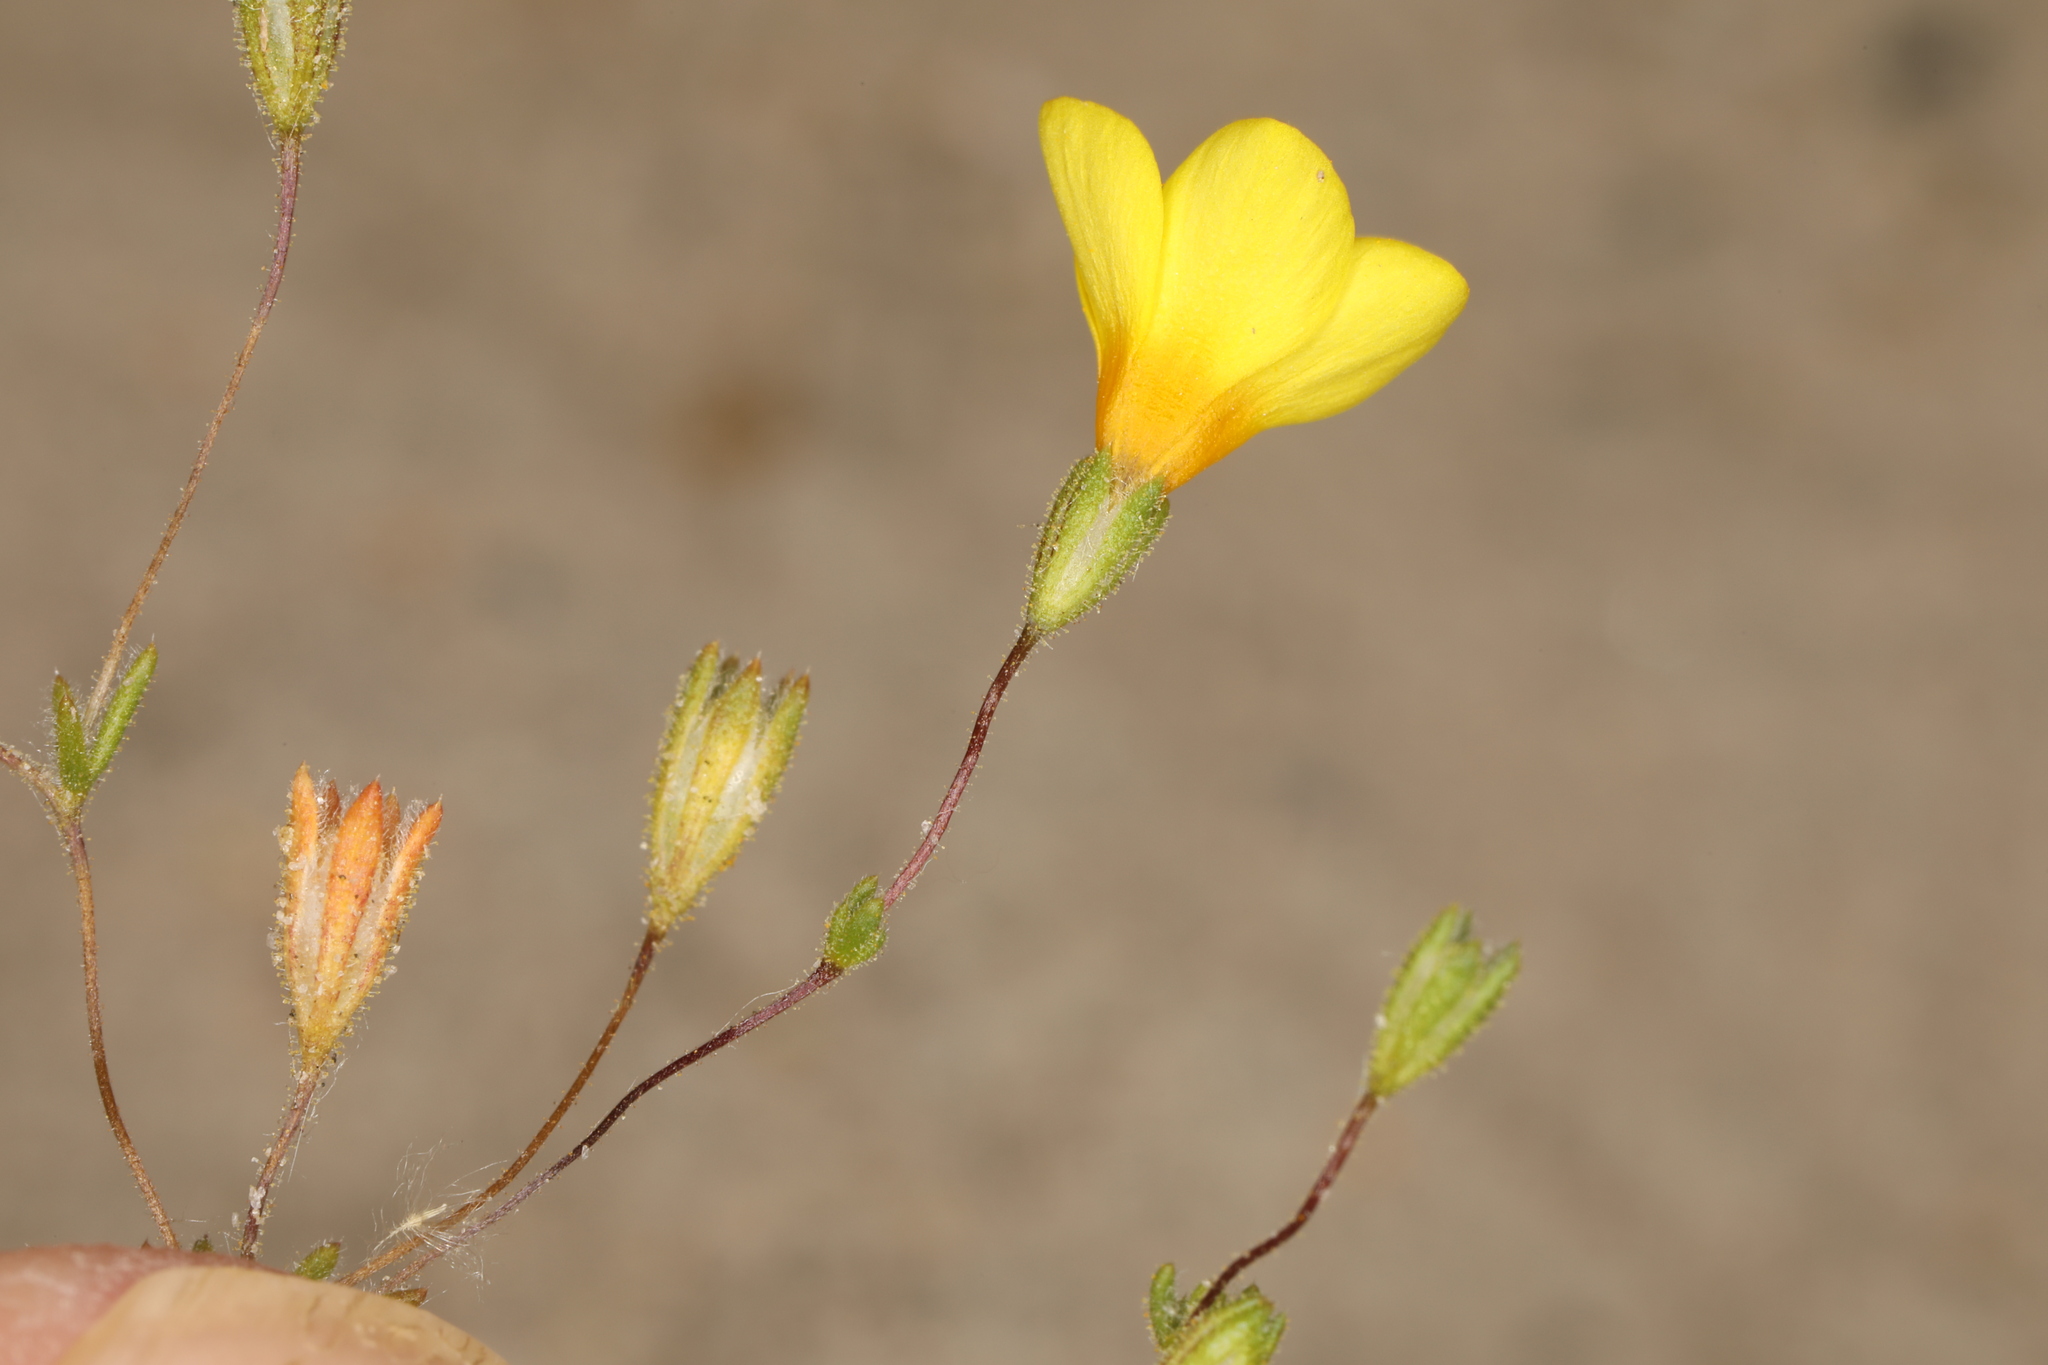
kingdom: Plantae
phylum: Tracheophyta
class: Magnoliopsida
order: Ericales
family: Polemoniaceae
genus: Leptosiphon
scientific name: Leptosiphon chrysanthus
